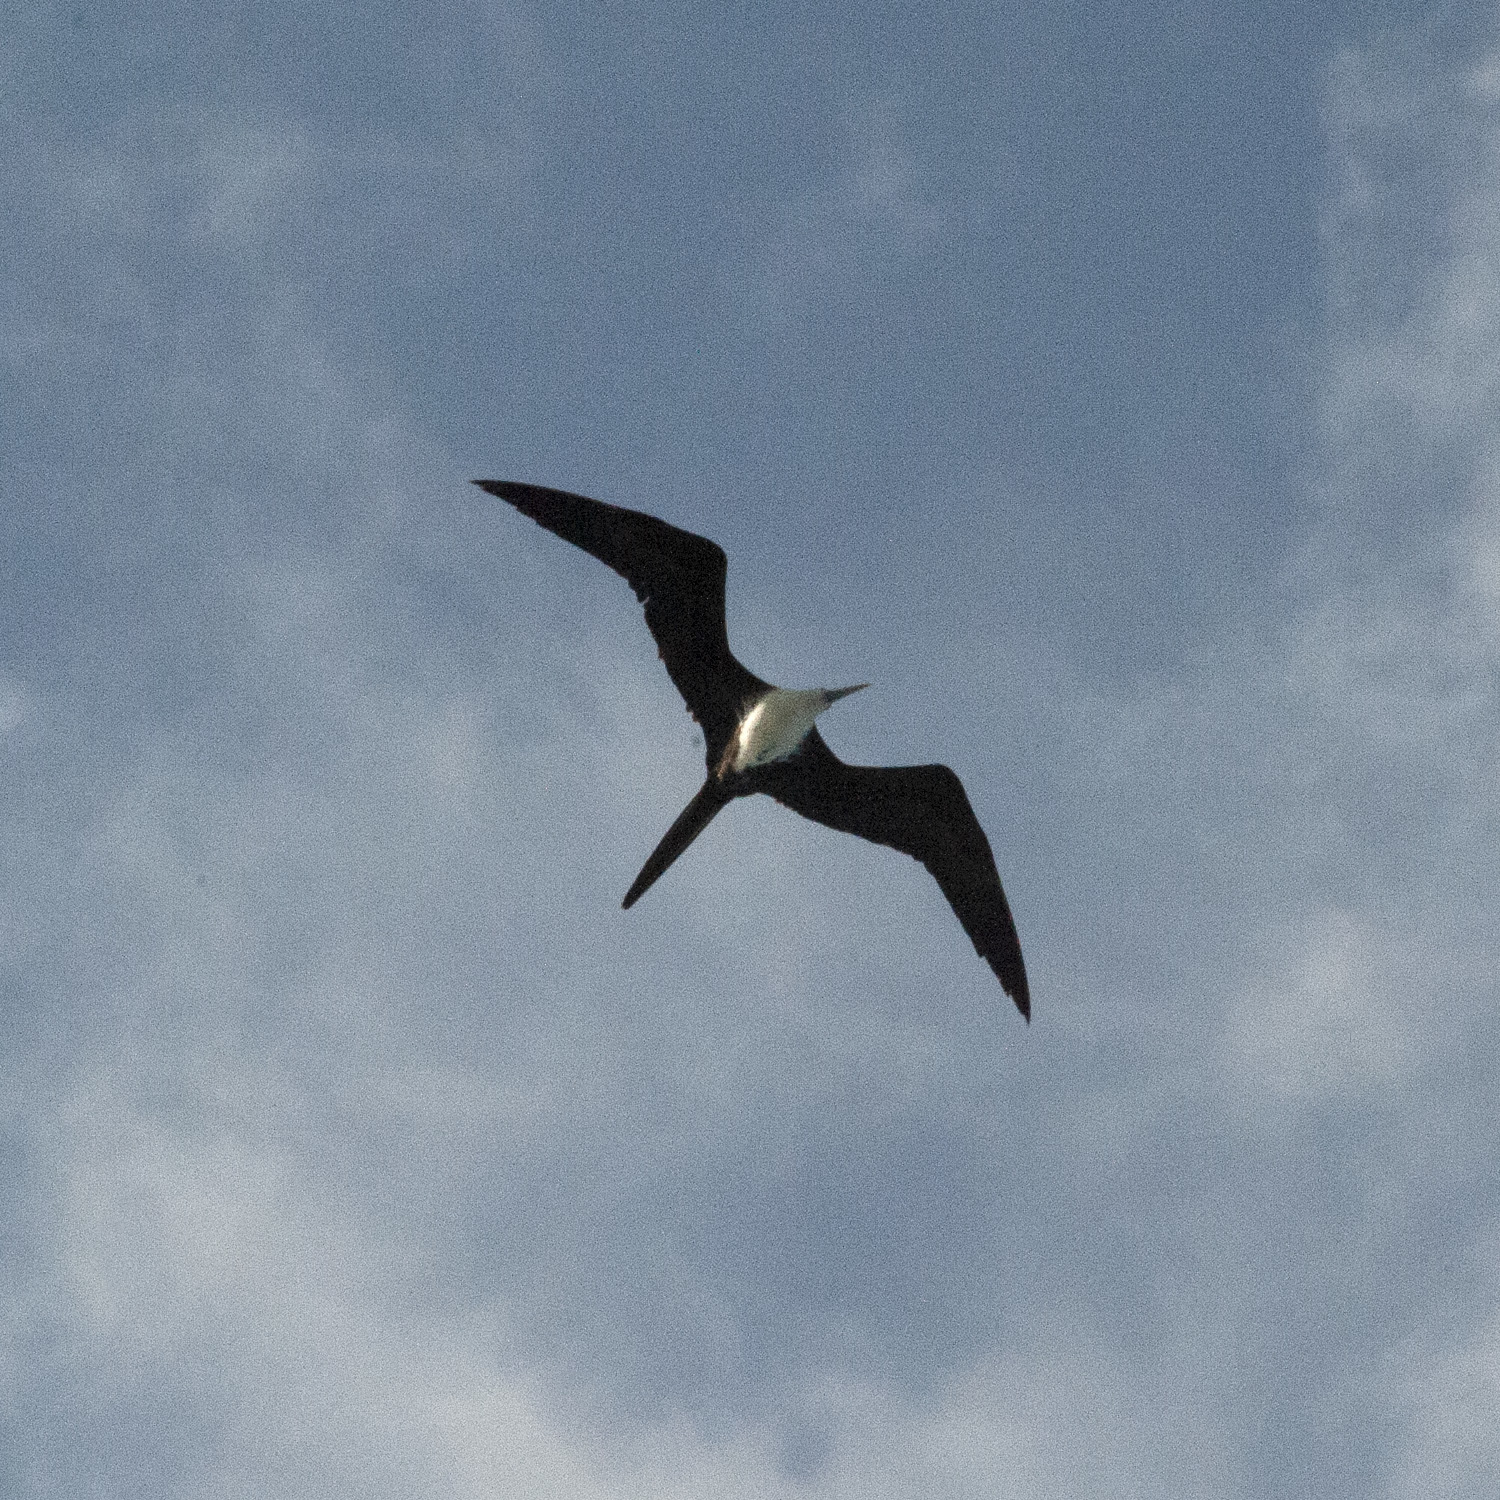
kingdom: Animalia
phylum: Chordata
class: Aves
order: Suliformes
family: Fregatidae
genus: Fregata
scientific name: Fregata magnificens
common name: Magnificent frigatebird
